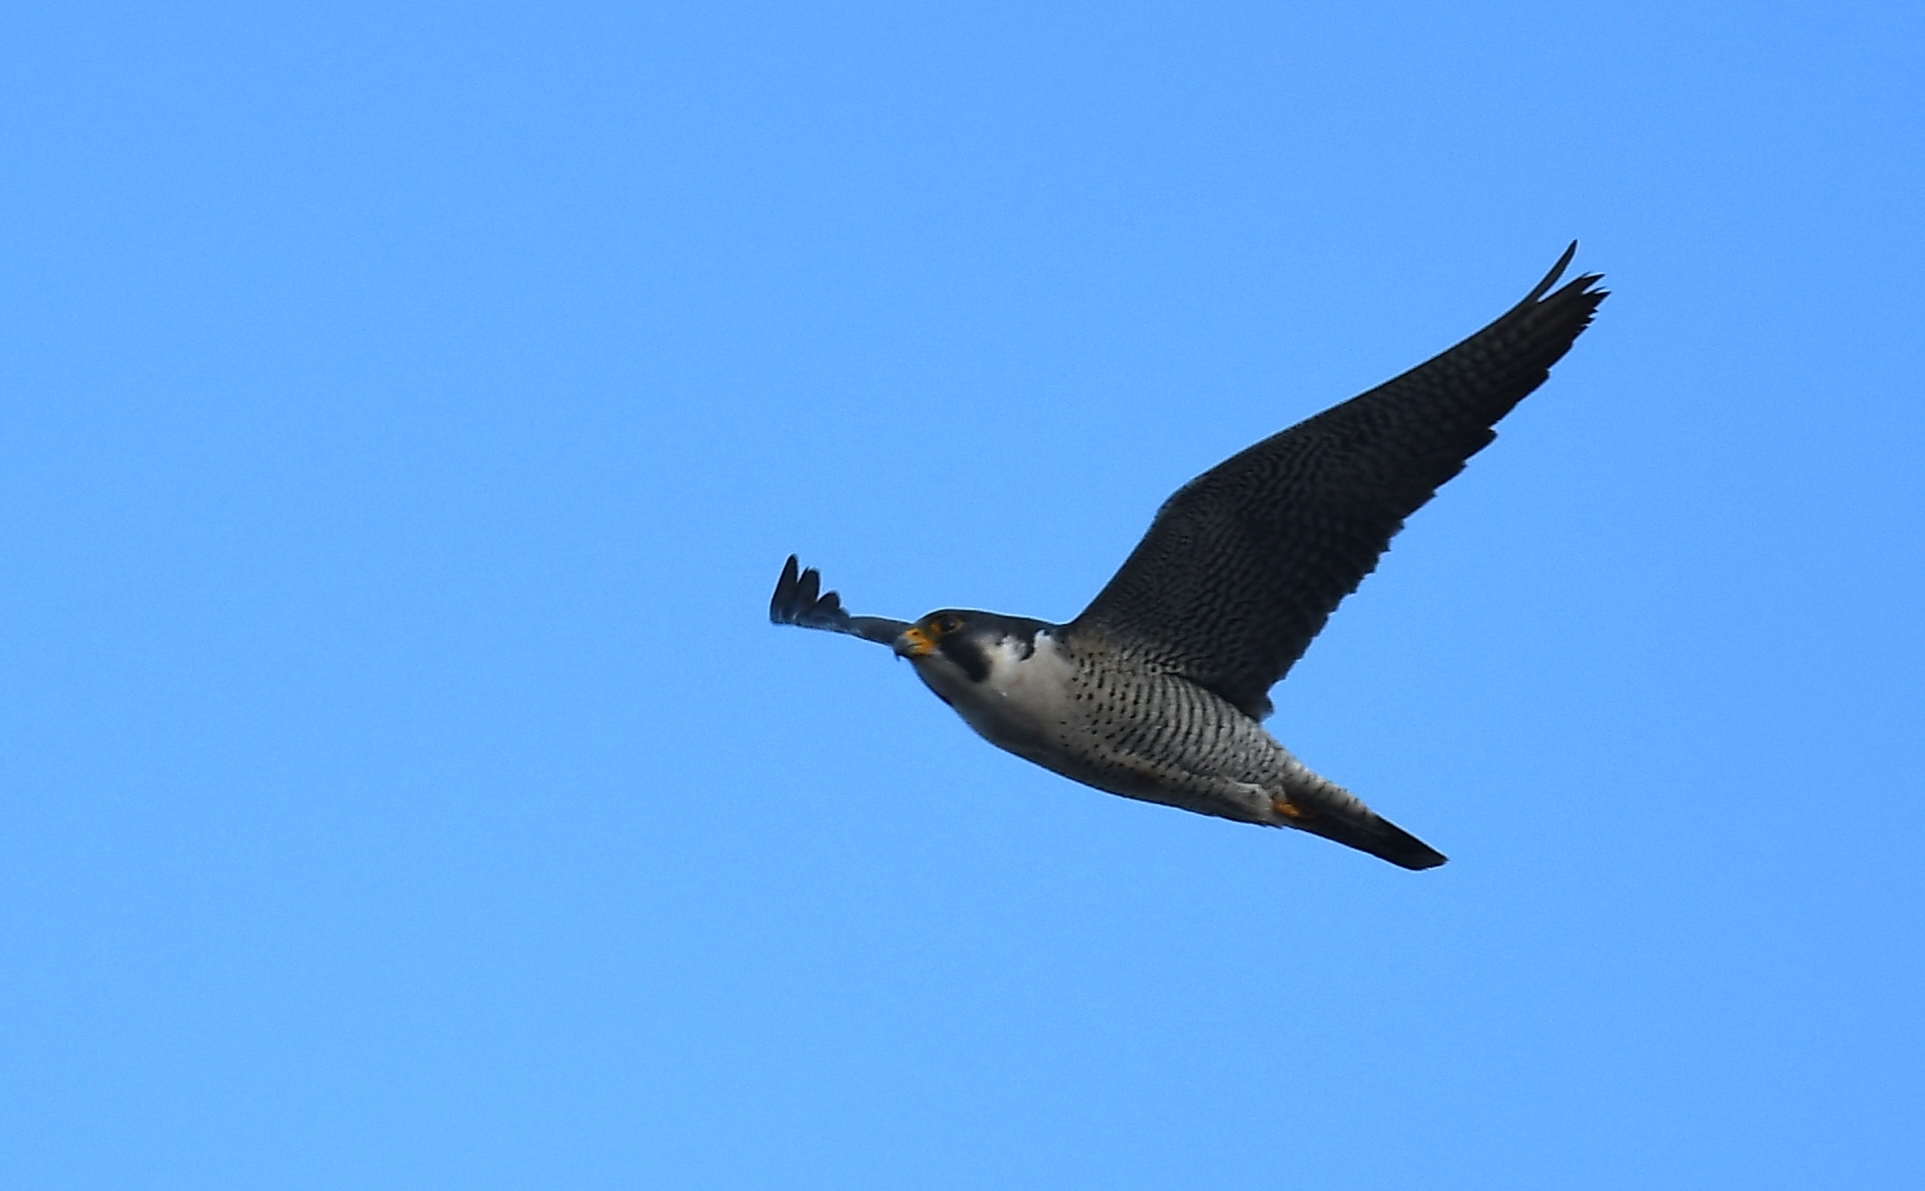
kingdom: Animalia
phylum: Chordata
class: Aves
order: Falconiformes
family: Falconidae
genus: Falco
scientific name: Falco peregrinus
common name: Peregrine falcon
